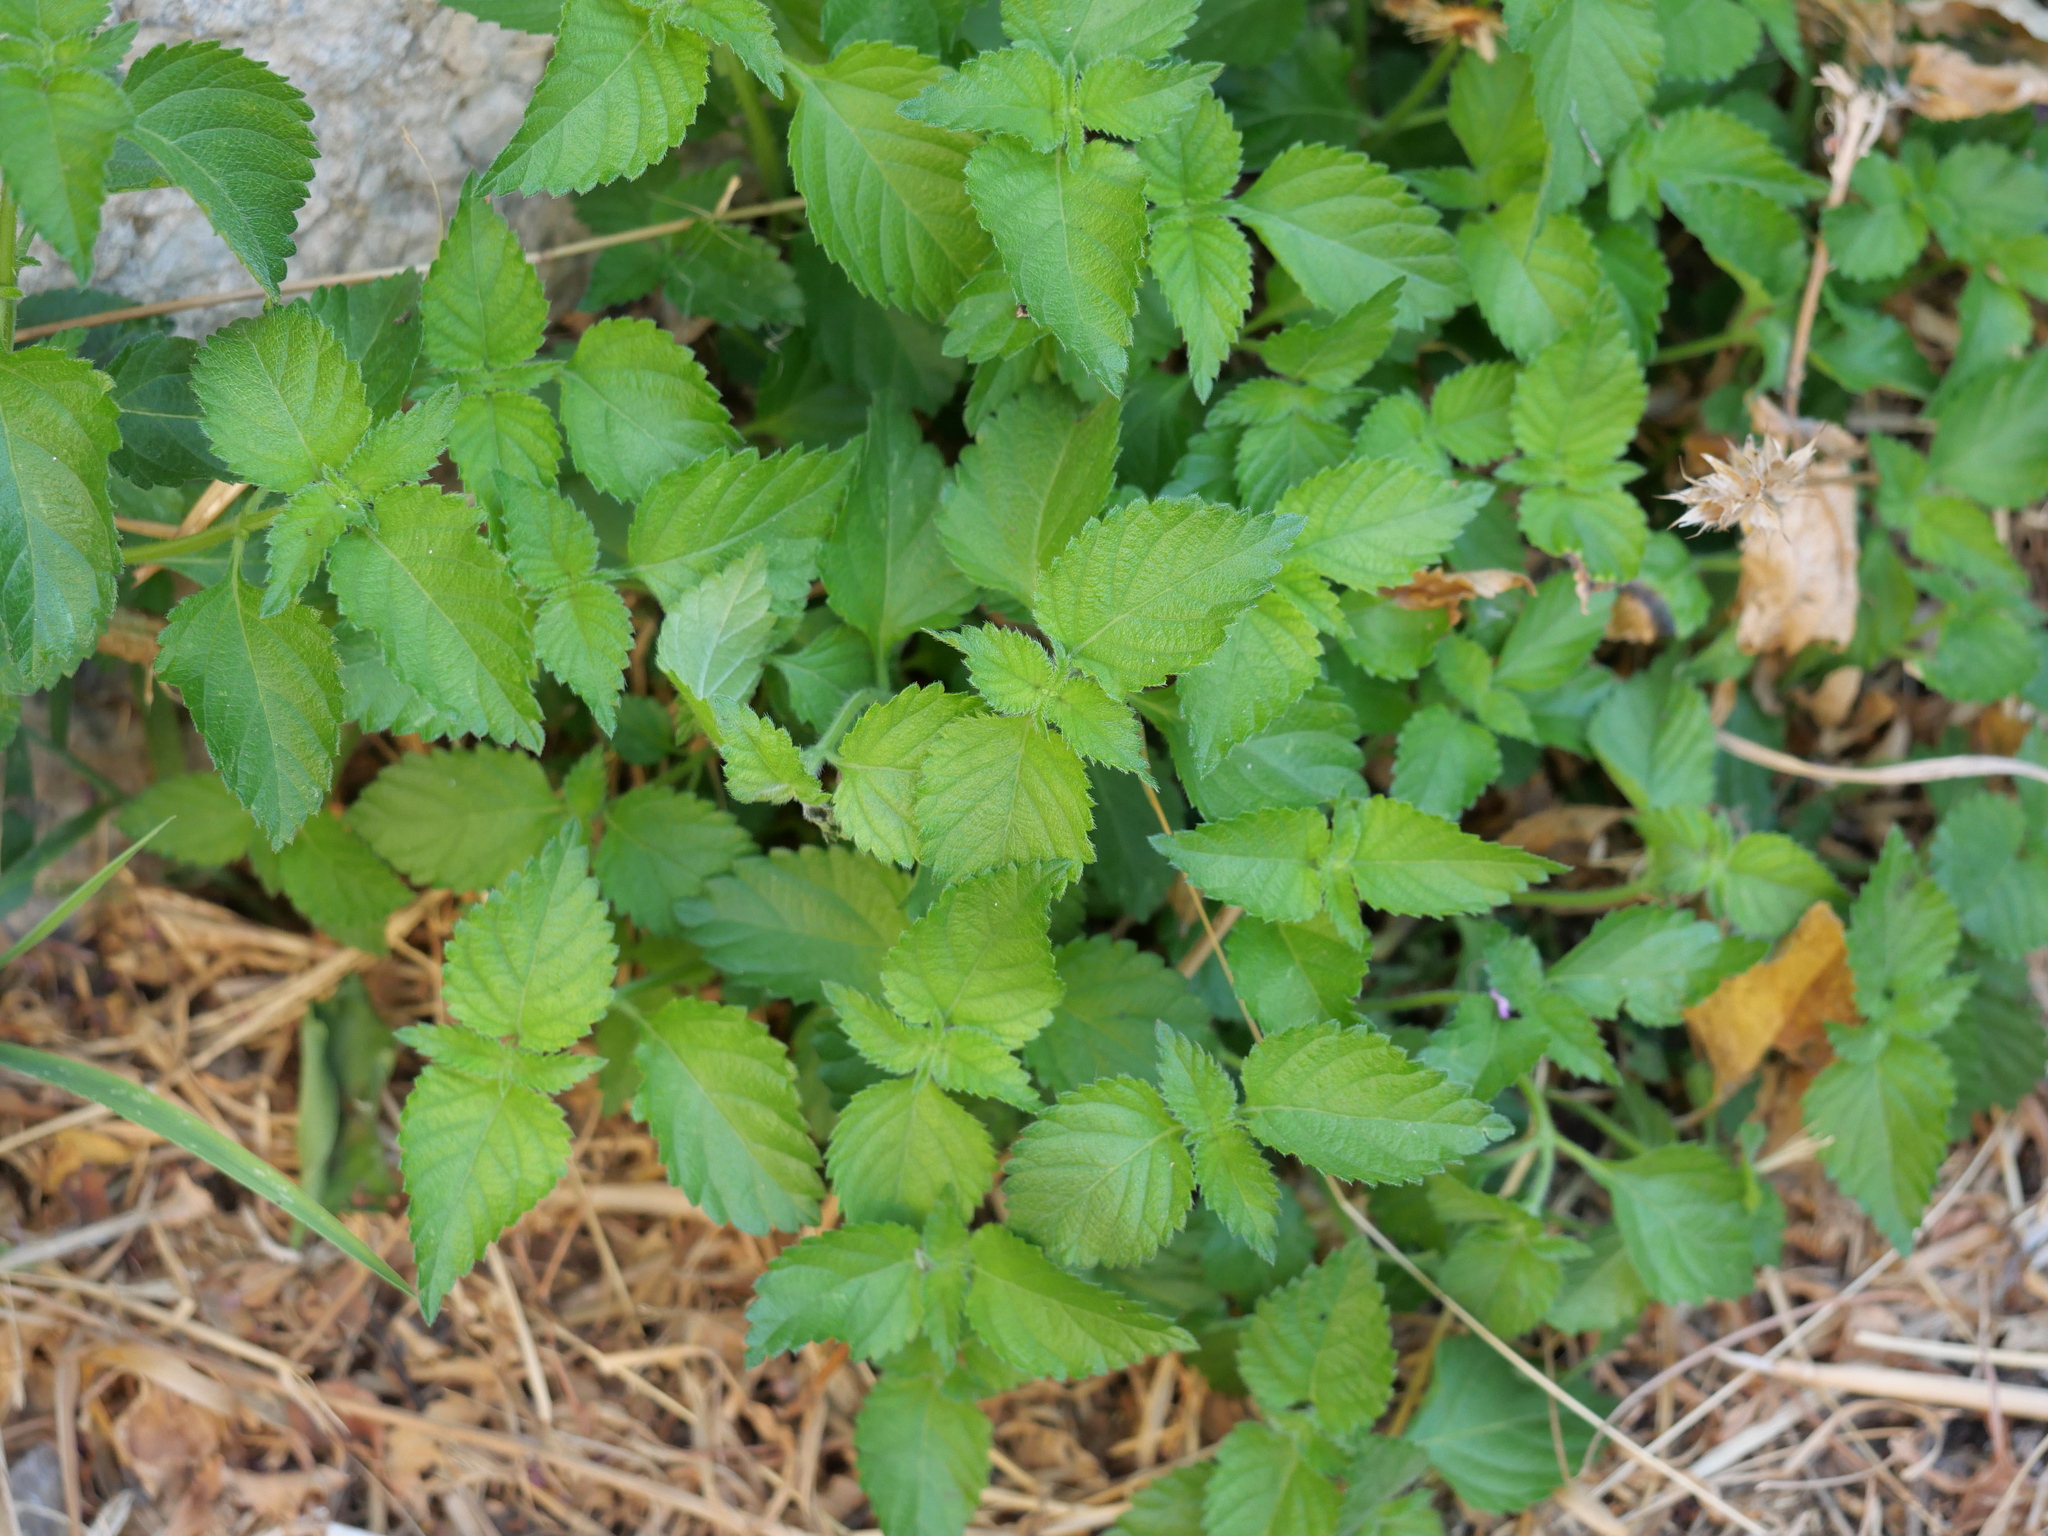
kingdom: Plantae
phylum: Tracheophyta
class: Magnoliopsida
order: Lamiales
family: Verbenaceae
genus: Lantana
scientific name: Lantana camara
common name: Lantana
